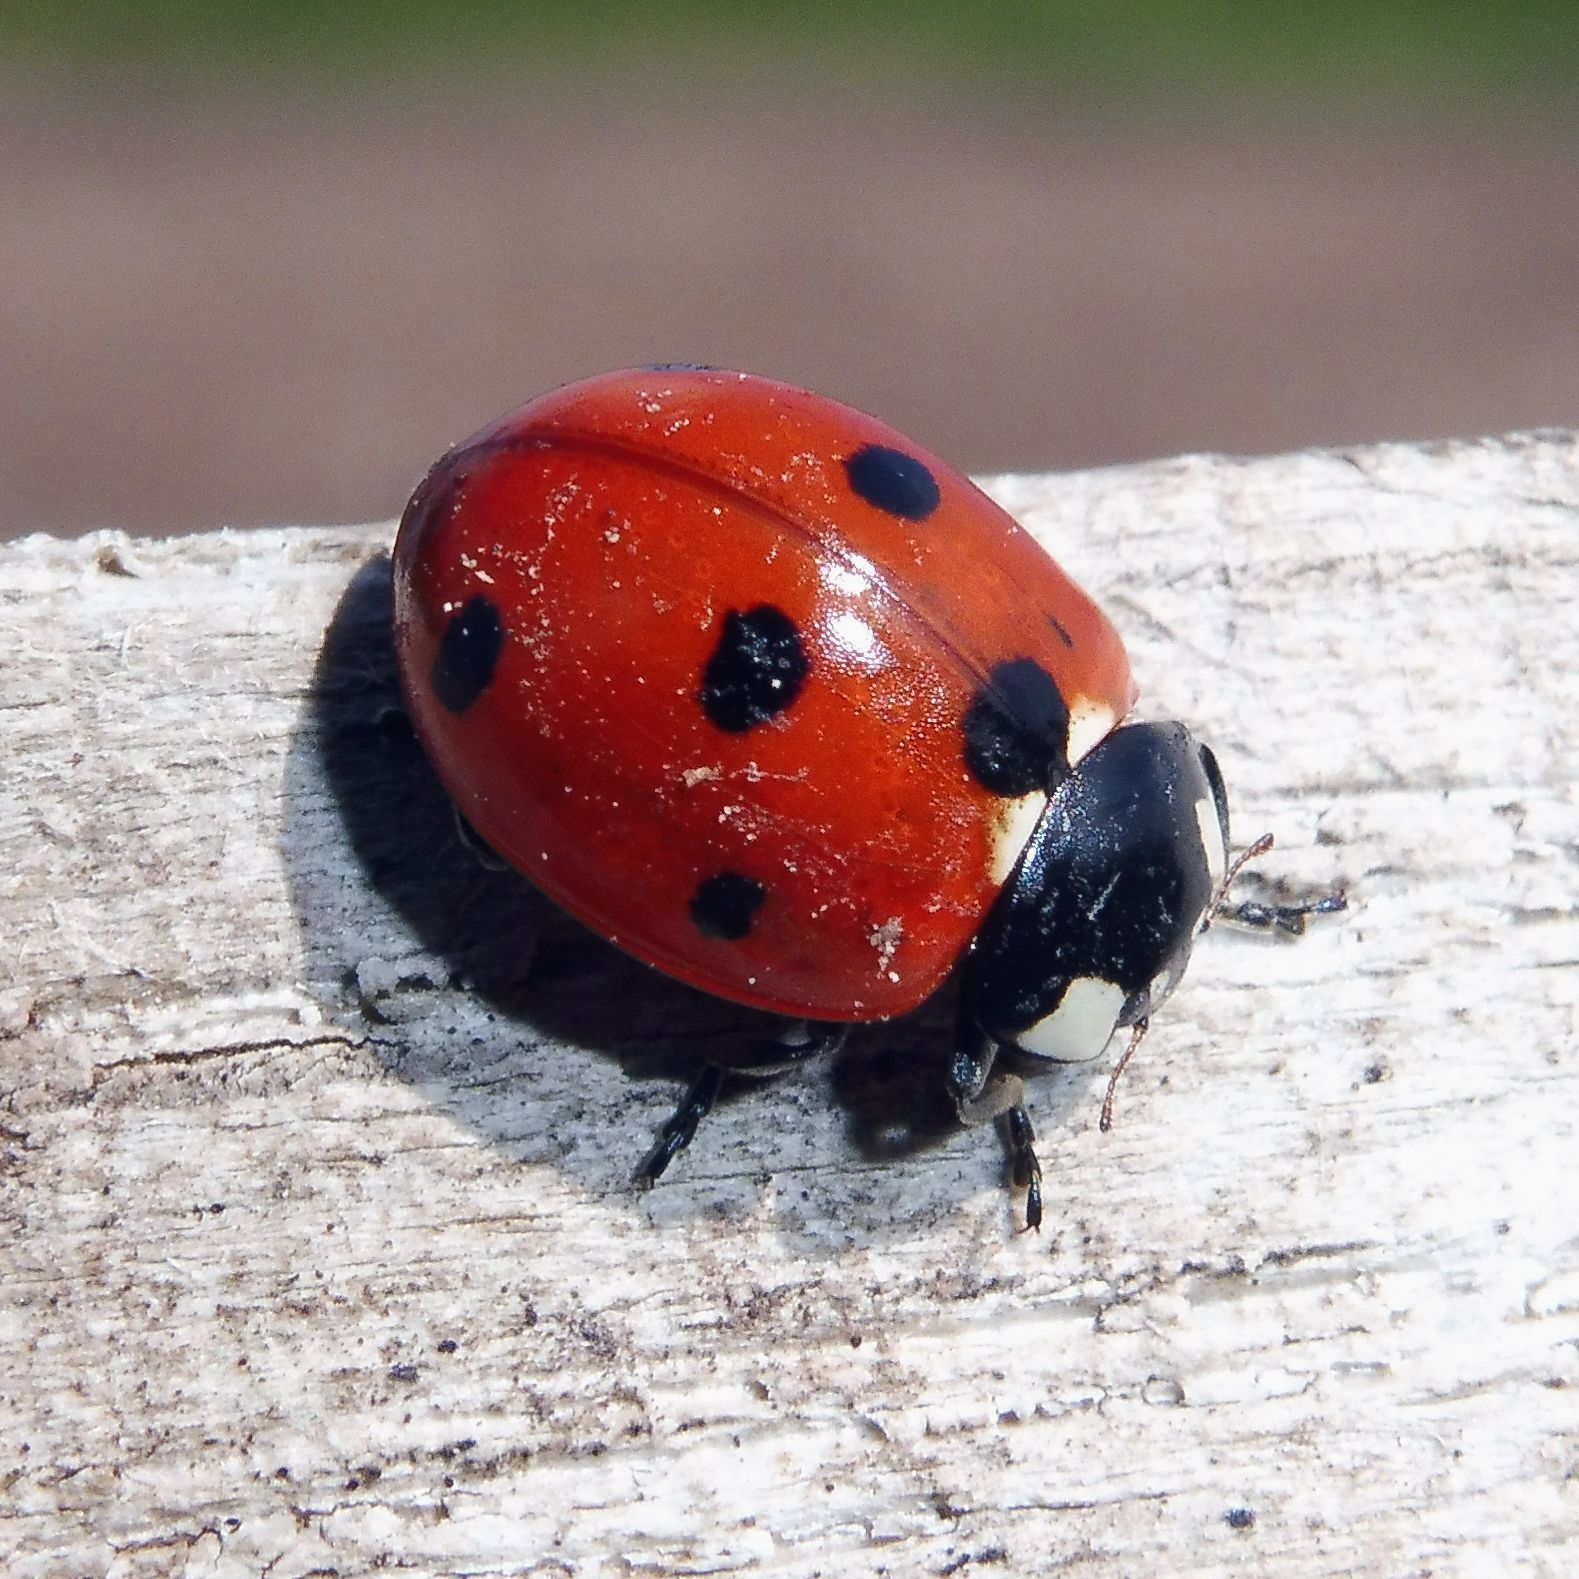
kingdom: Animalia
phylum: Arthropoda
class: Insecta
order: Coleoptera
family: Coccinellidae
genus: Coccinella
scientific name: Coccinella septempunctata
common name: Sevenspotted lady beetle
